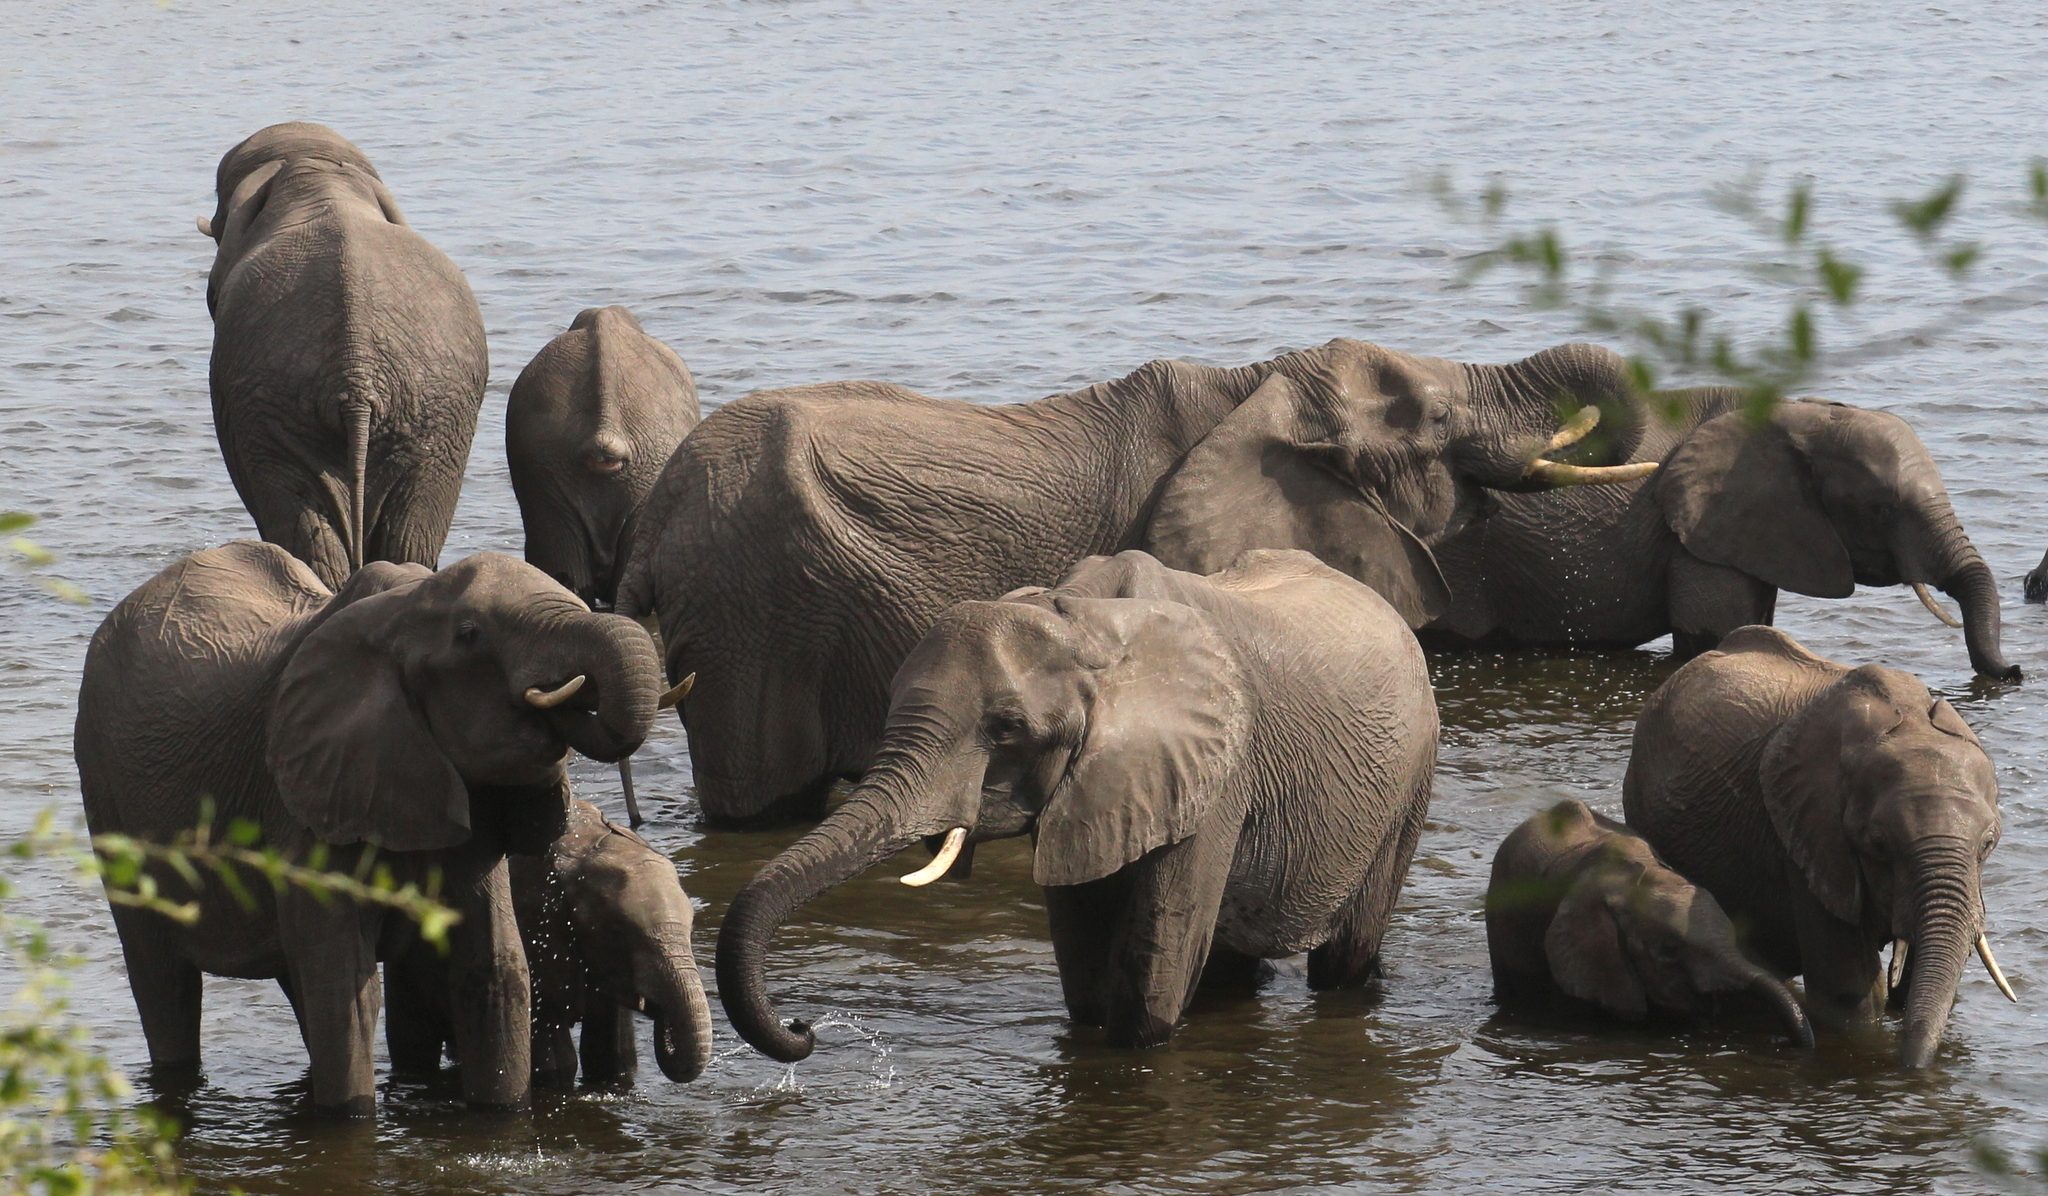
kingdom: Animalia
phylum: Chordata
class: Mammalia
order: Proboscidea
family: Elephantidae
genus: Loxodonta
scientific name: Loxodonta africana
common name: African elephant
